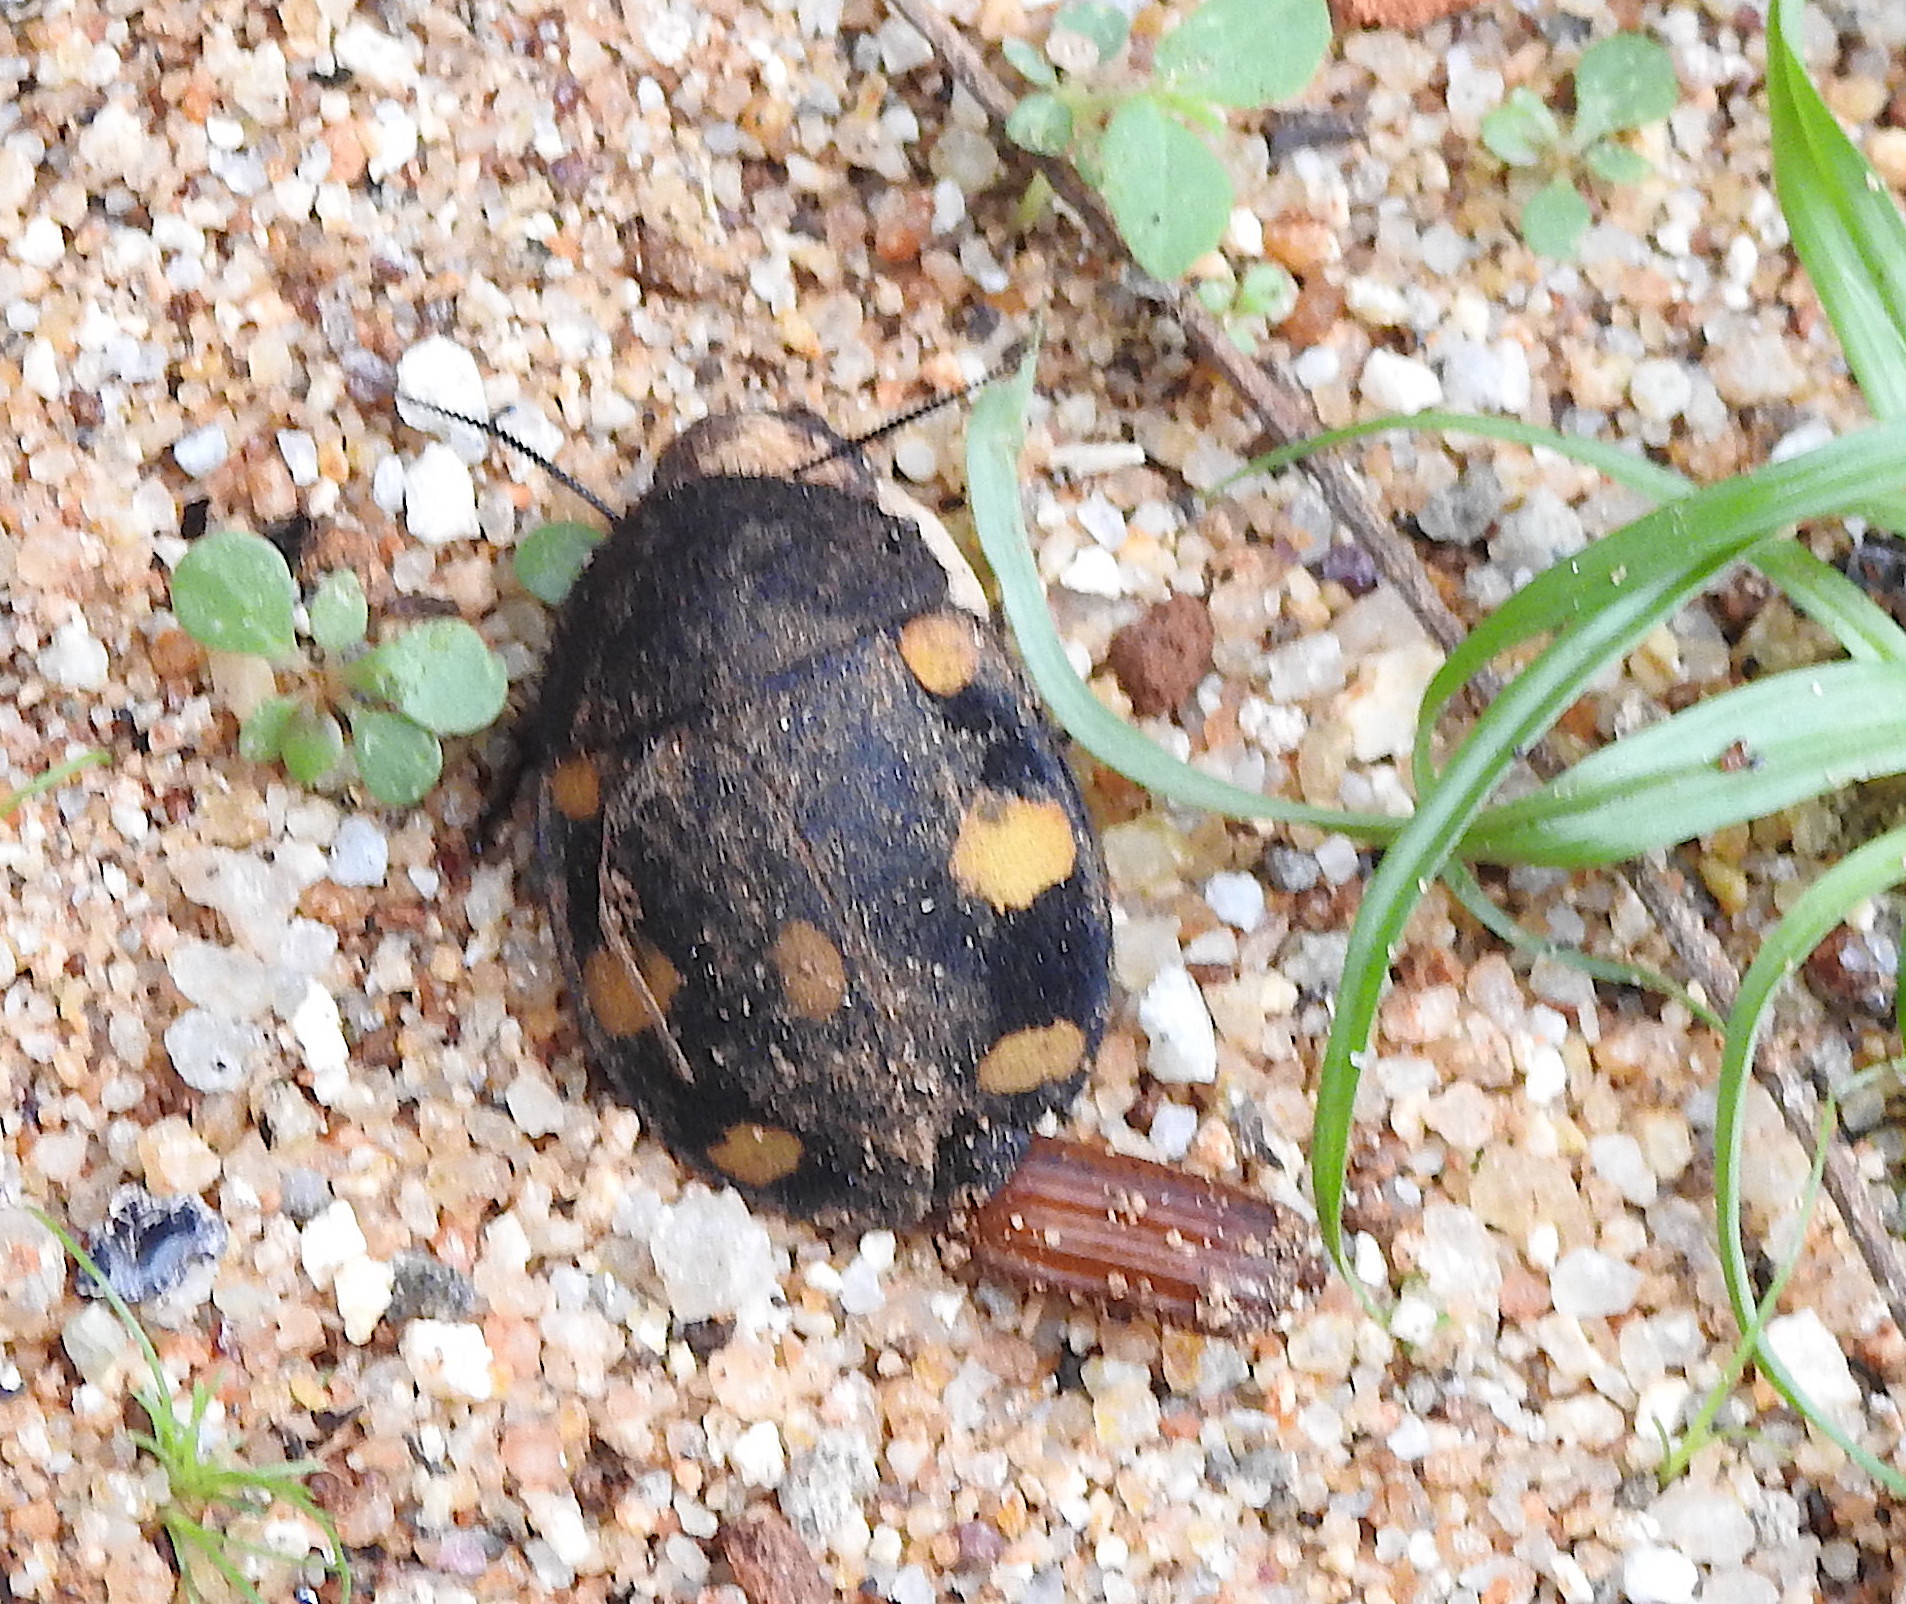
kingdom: Animalia
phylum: Arthropoda
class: Insecta
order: Blattodea
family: Corydiidae
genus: Therea
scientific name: Therea regularis
